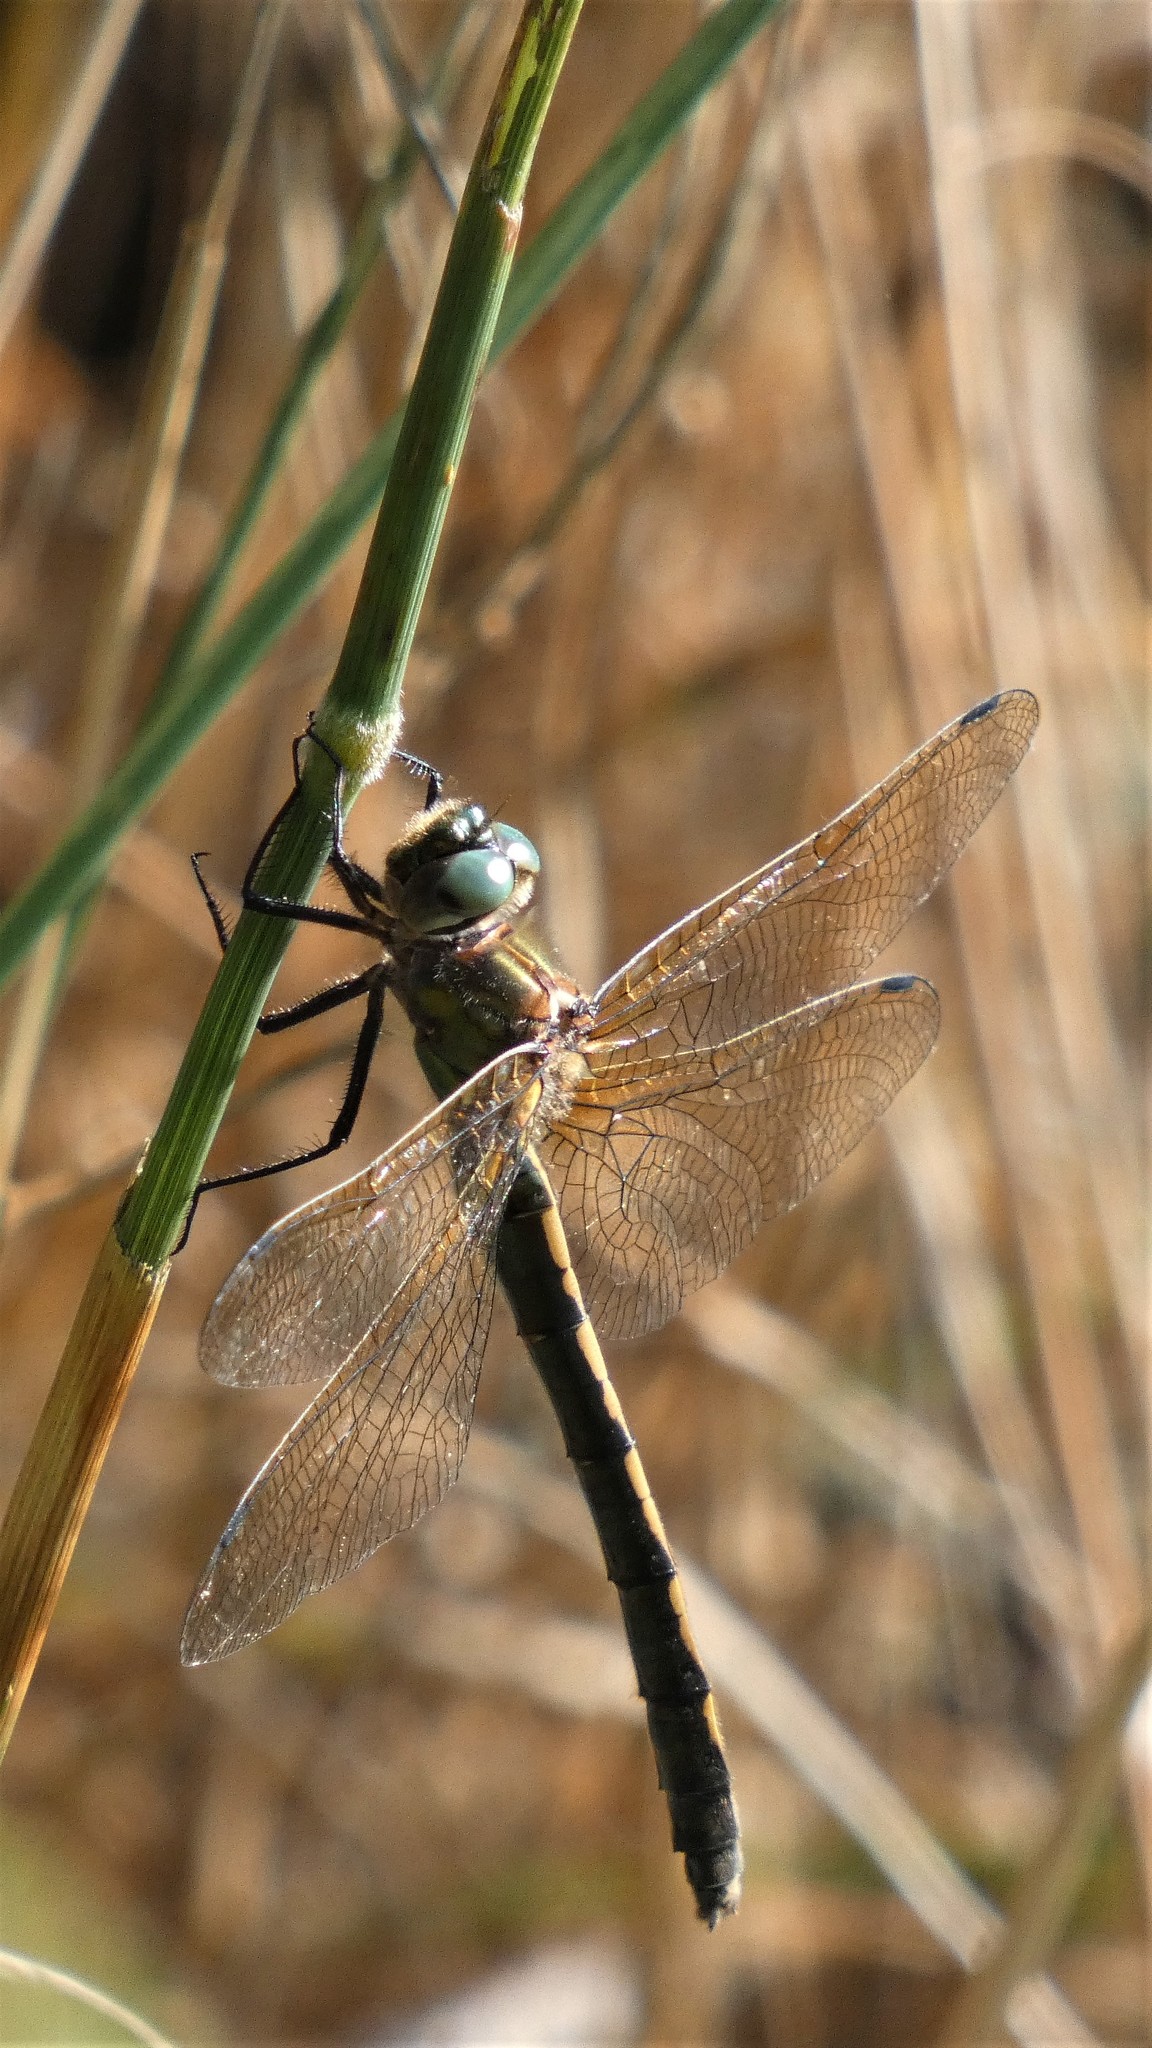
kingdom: Animalia
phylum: Arthropoda
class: Insecta
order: Odonata
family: Corduliidae
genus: Oxygastra
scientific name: Oxygastra curtisii
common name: Orange-spotted emerald
